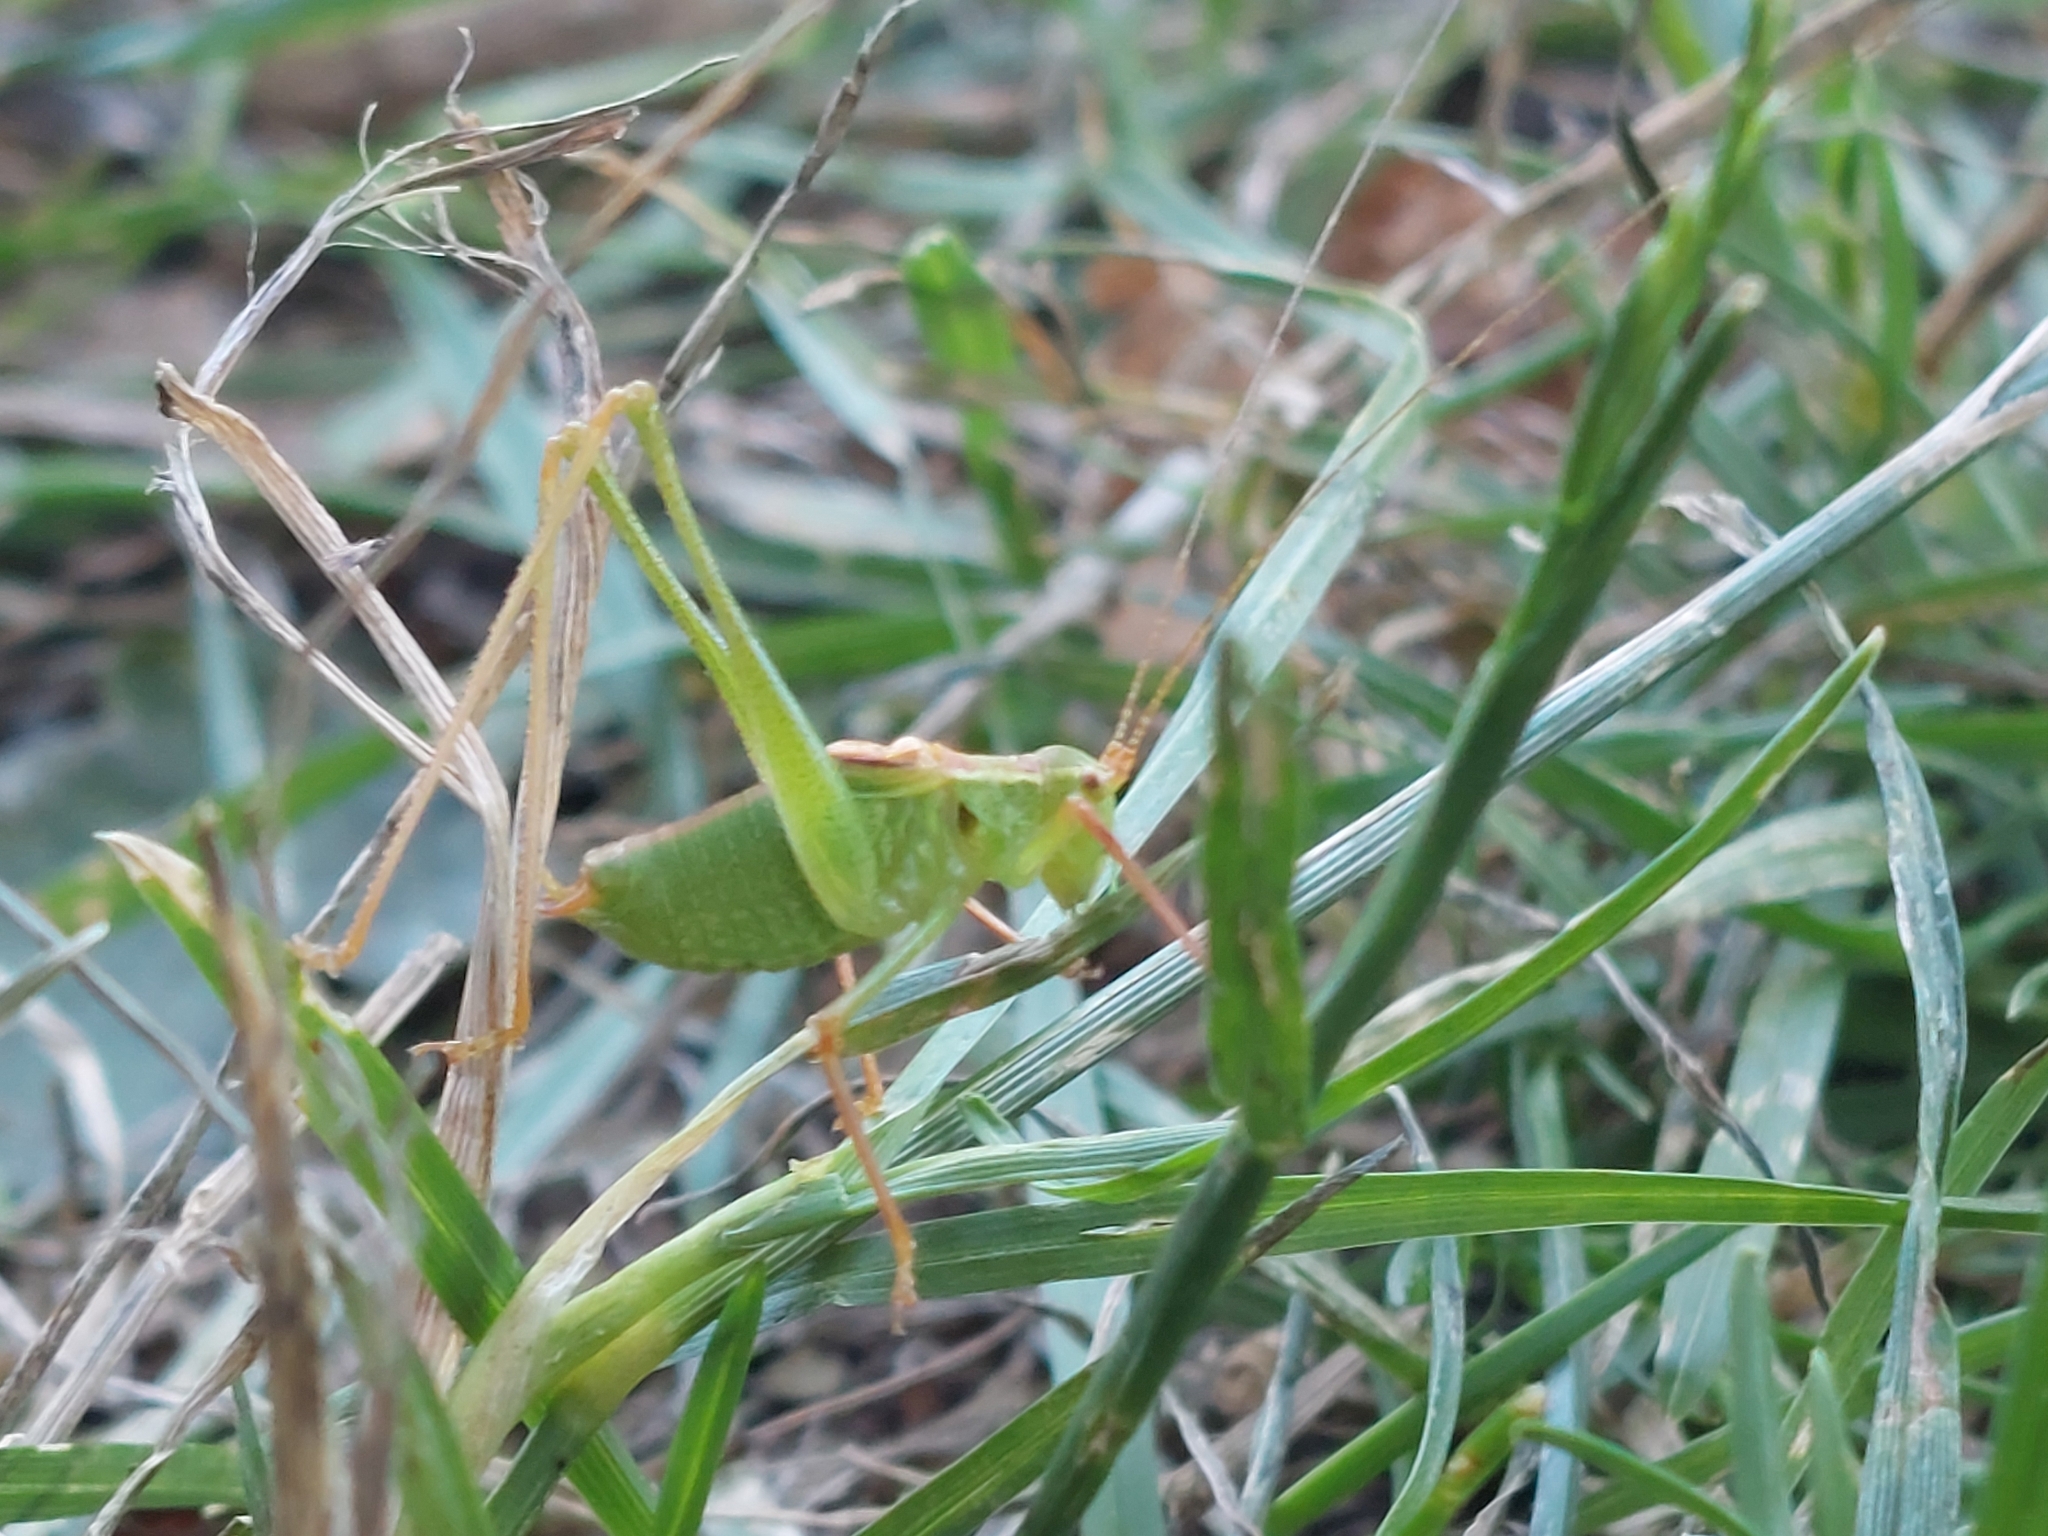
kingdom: Animalia
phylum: Arthropoda
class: Insecta
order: Orthoptera
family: Tettigoniidae
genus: Leptophyes
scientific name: Leptophyes punctatissima
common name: Speckled bush-cricket
